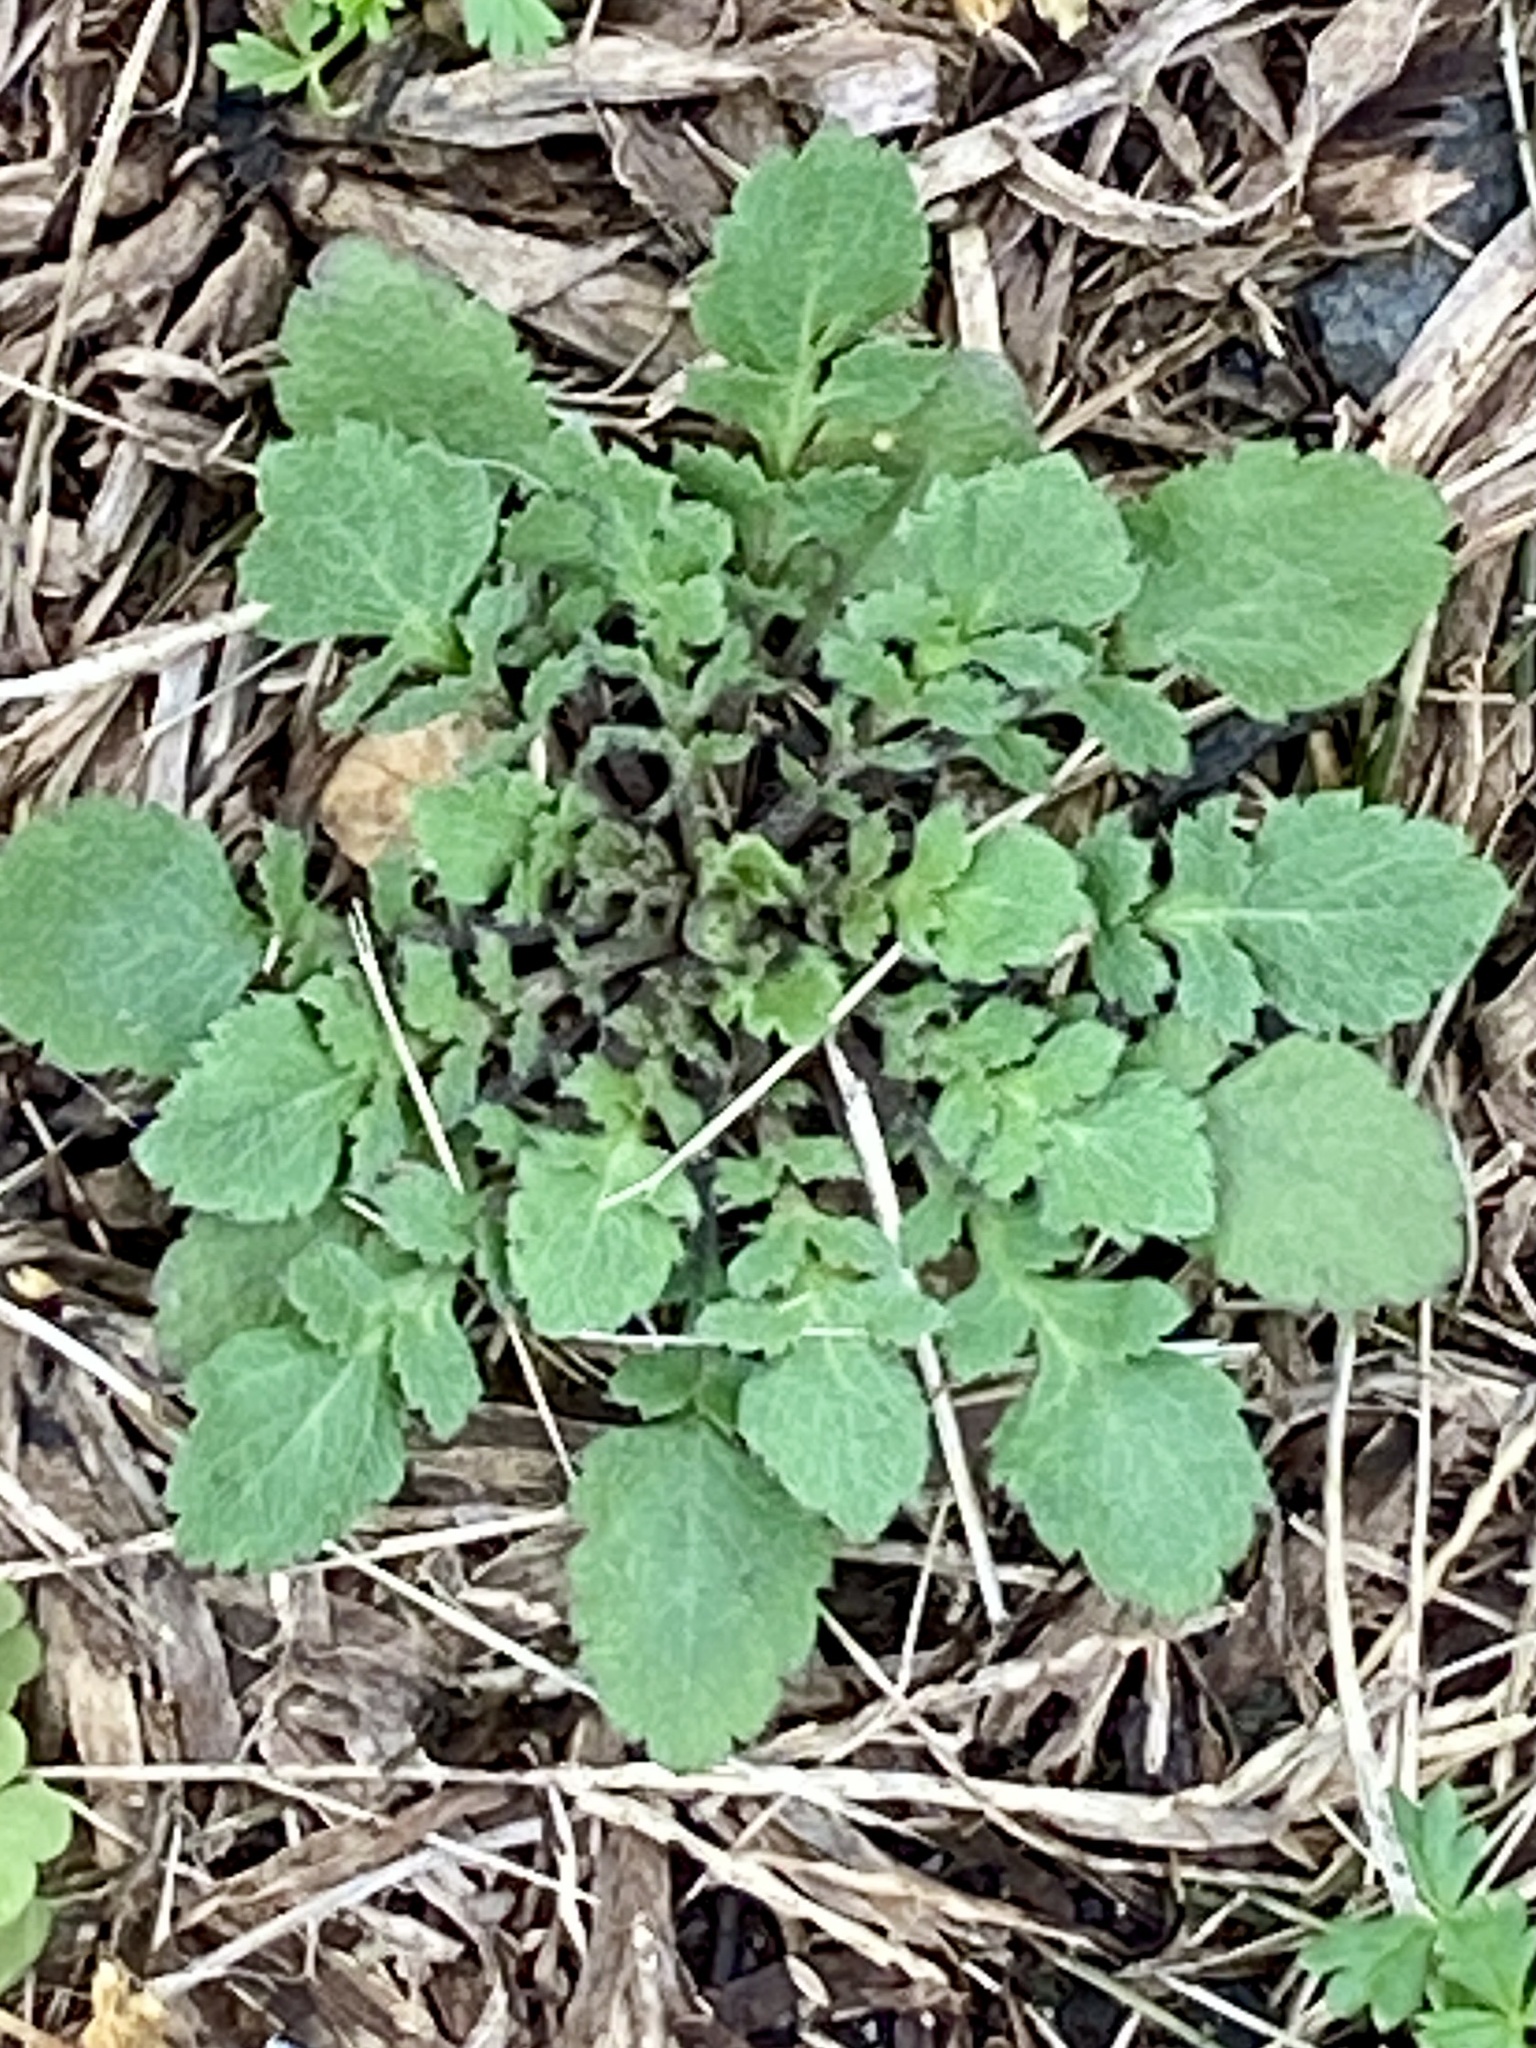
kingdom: Plantae
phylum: Tracheophyta
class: Magnoliopsida
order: Brassicales
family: Brassicaceae
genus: Lepidium
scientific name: Lepidium virginicum
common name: Least pepperwort
